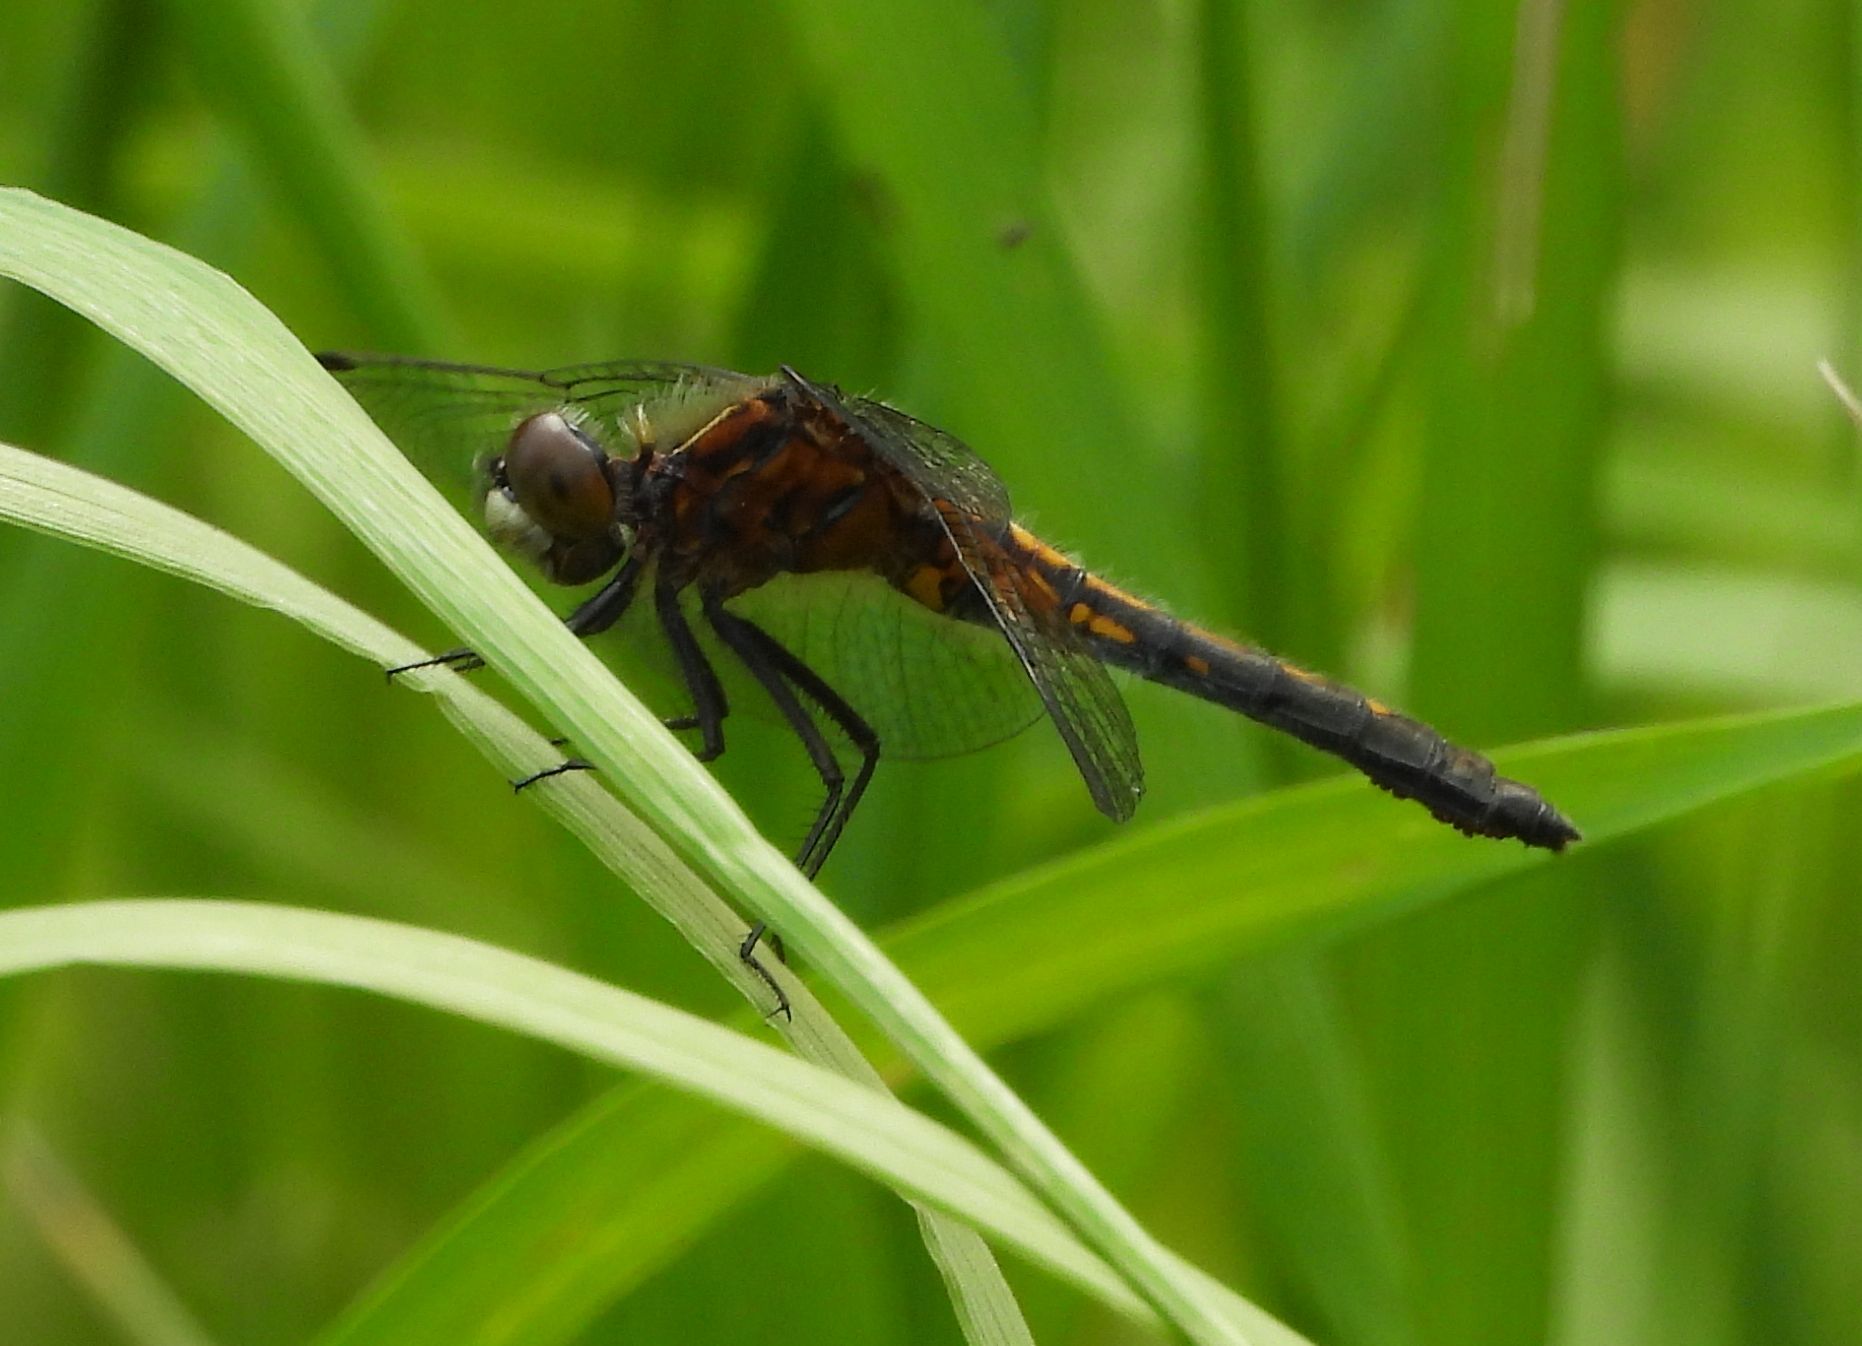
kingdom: Animalia
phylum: Arthropoda
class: Insecta
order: Odonata
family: Libellulidae
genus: Leucorrhinia
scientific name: Leucorrhinia intacta
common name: Dot-tailed whiteface
